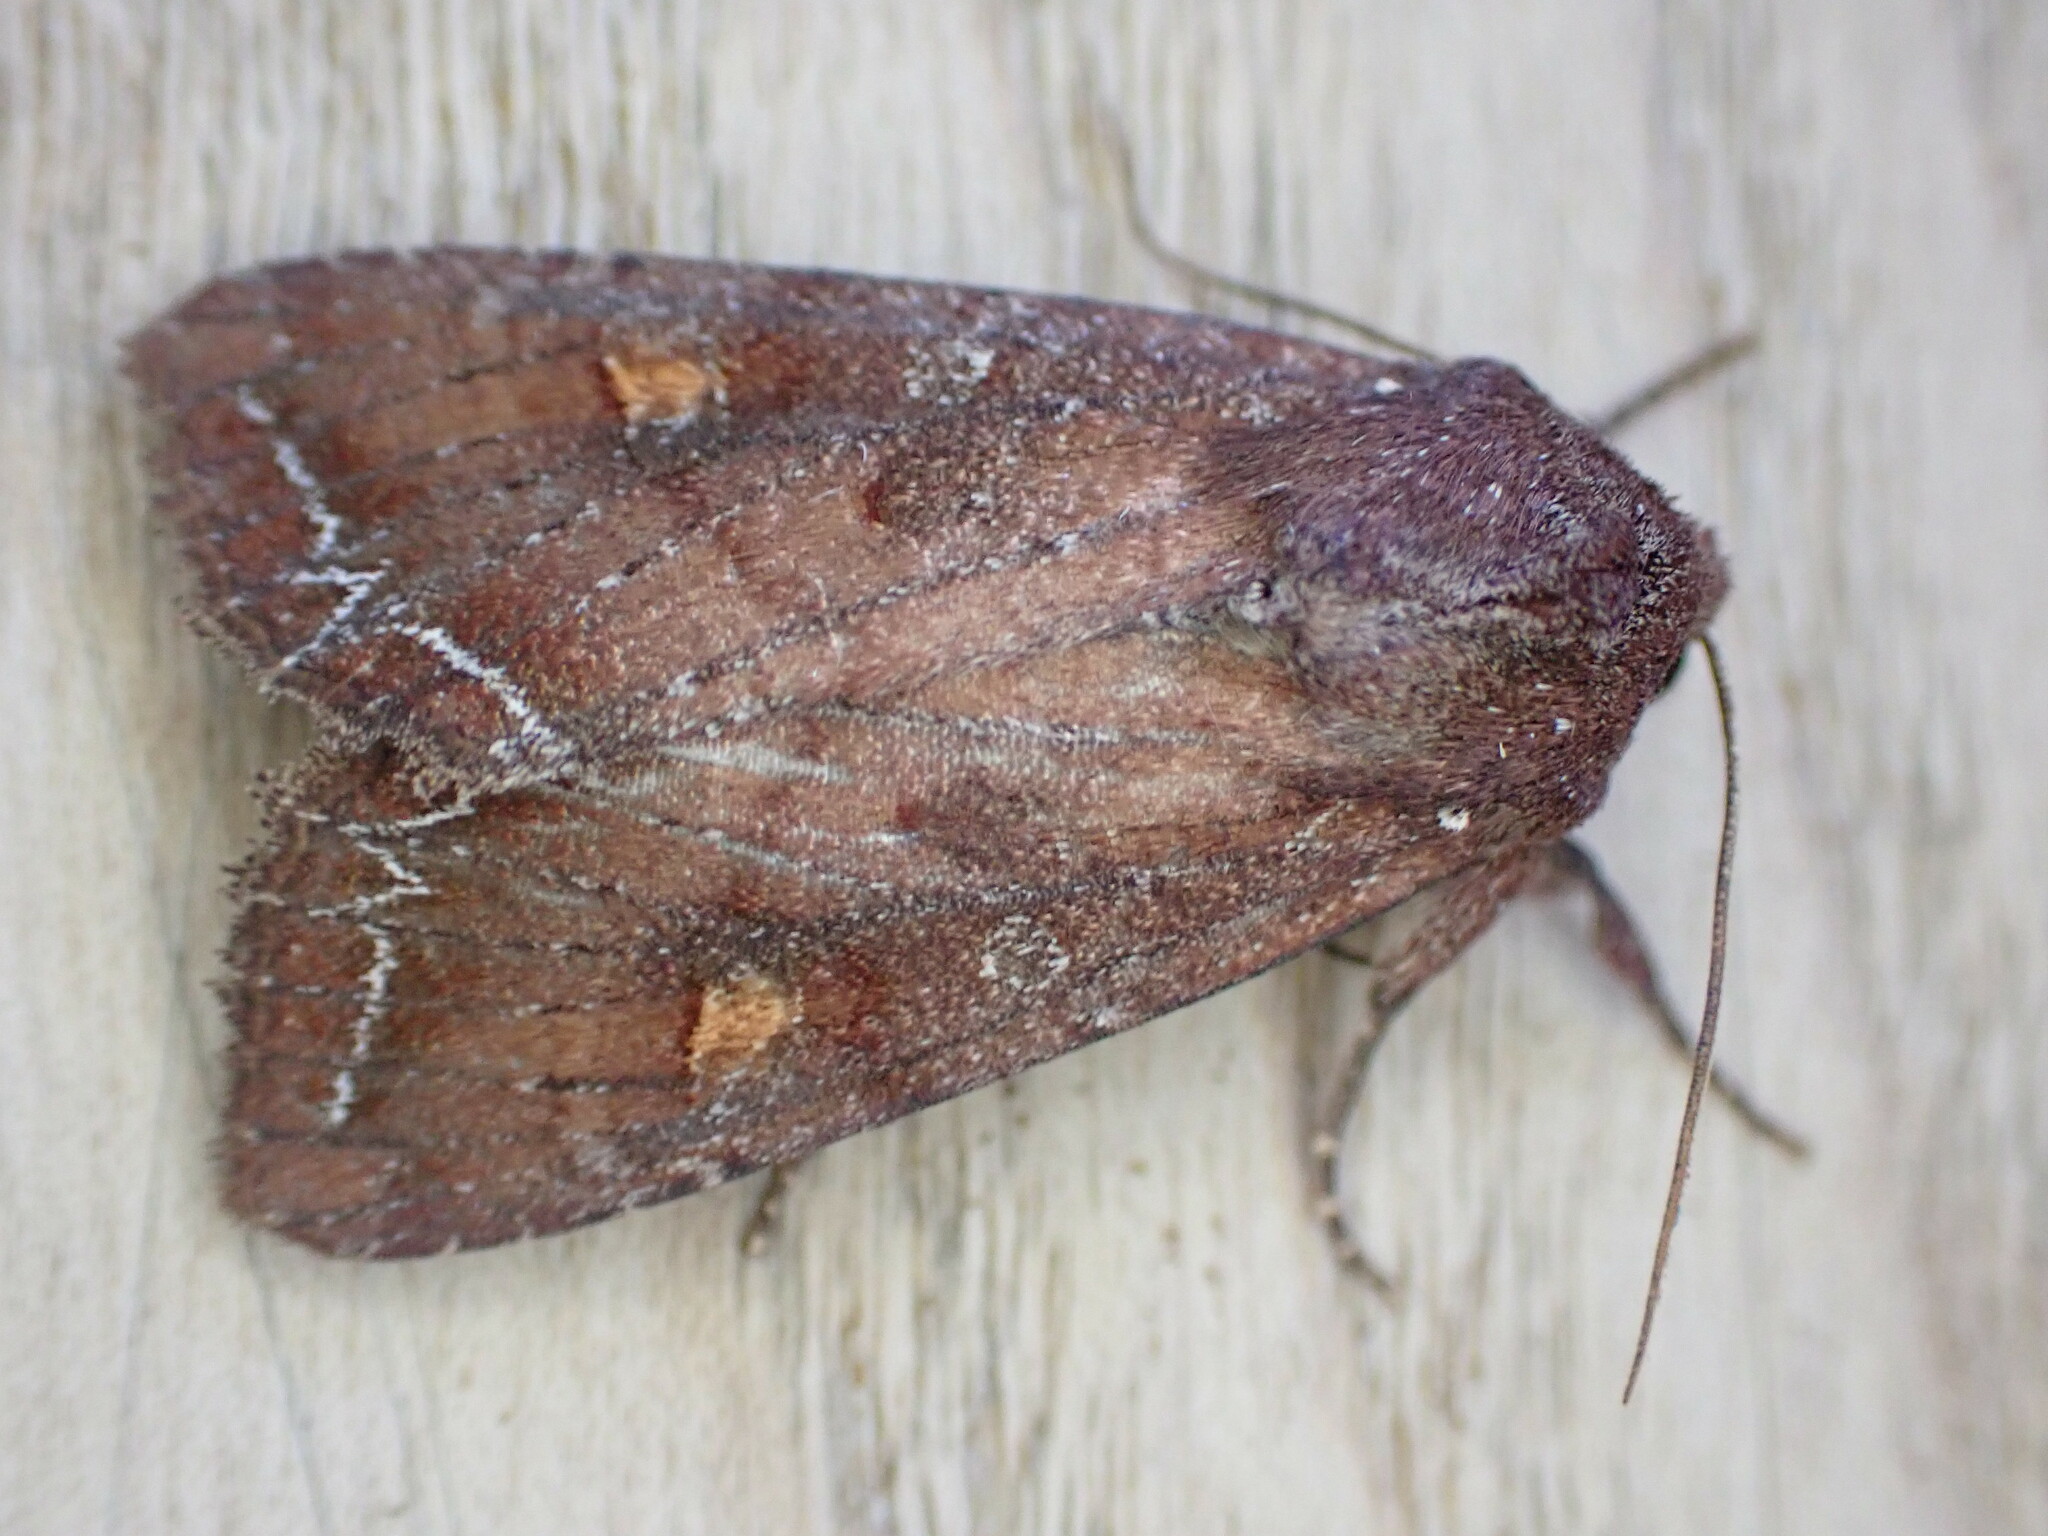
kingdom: Animalia
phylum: Arthropoda
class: Insecta
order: Lepidoptera
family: Noctuidae
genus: Lacanobia
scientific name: Lacanobia oleracea
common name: Bright-line brown-eye
